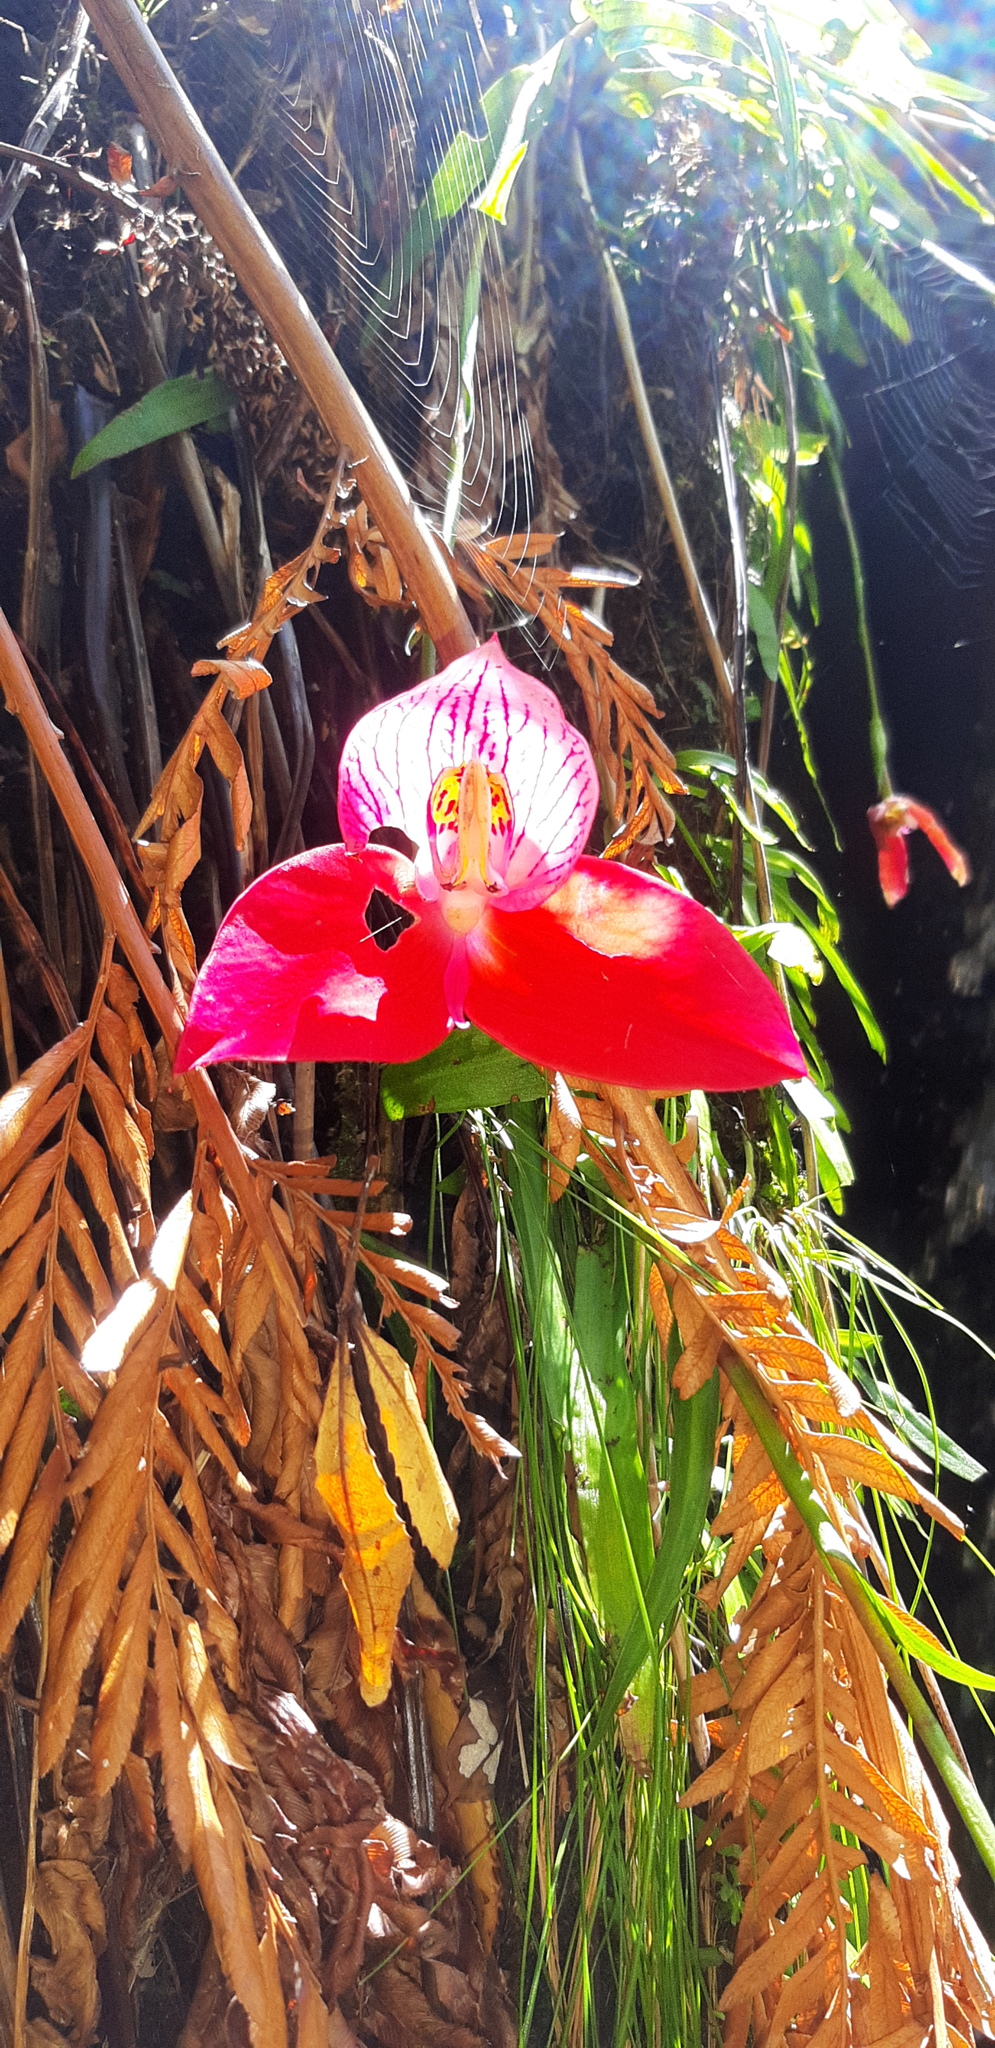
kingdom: Plantae
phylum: Tracheophyta
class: Liliopsida
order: Asparagales
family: Orchidaceae
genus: Disa
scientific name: Disa uniflora
